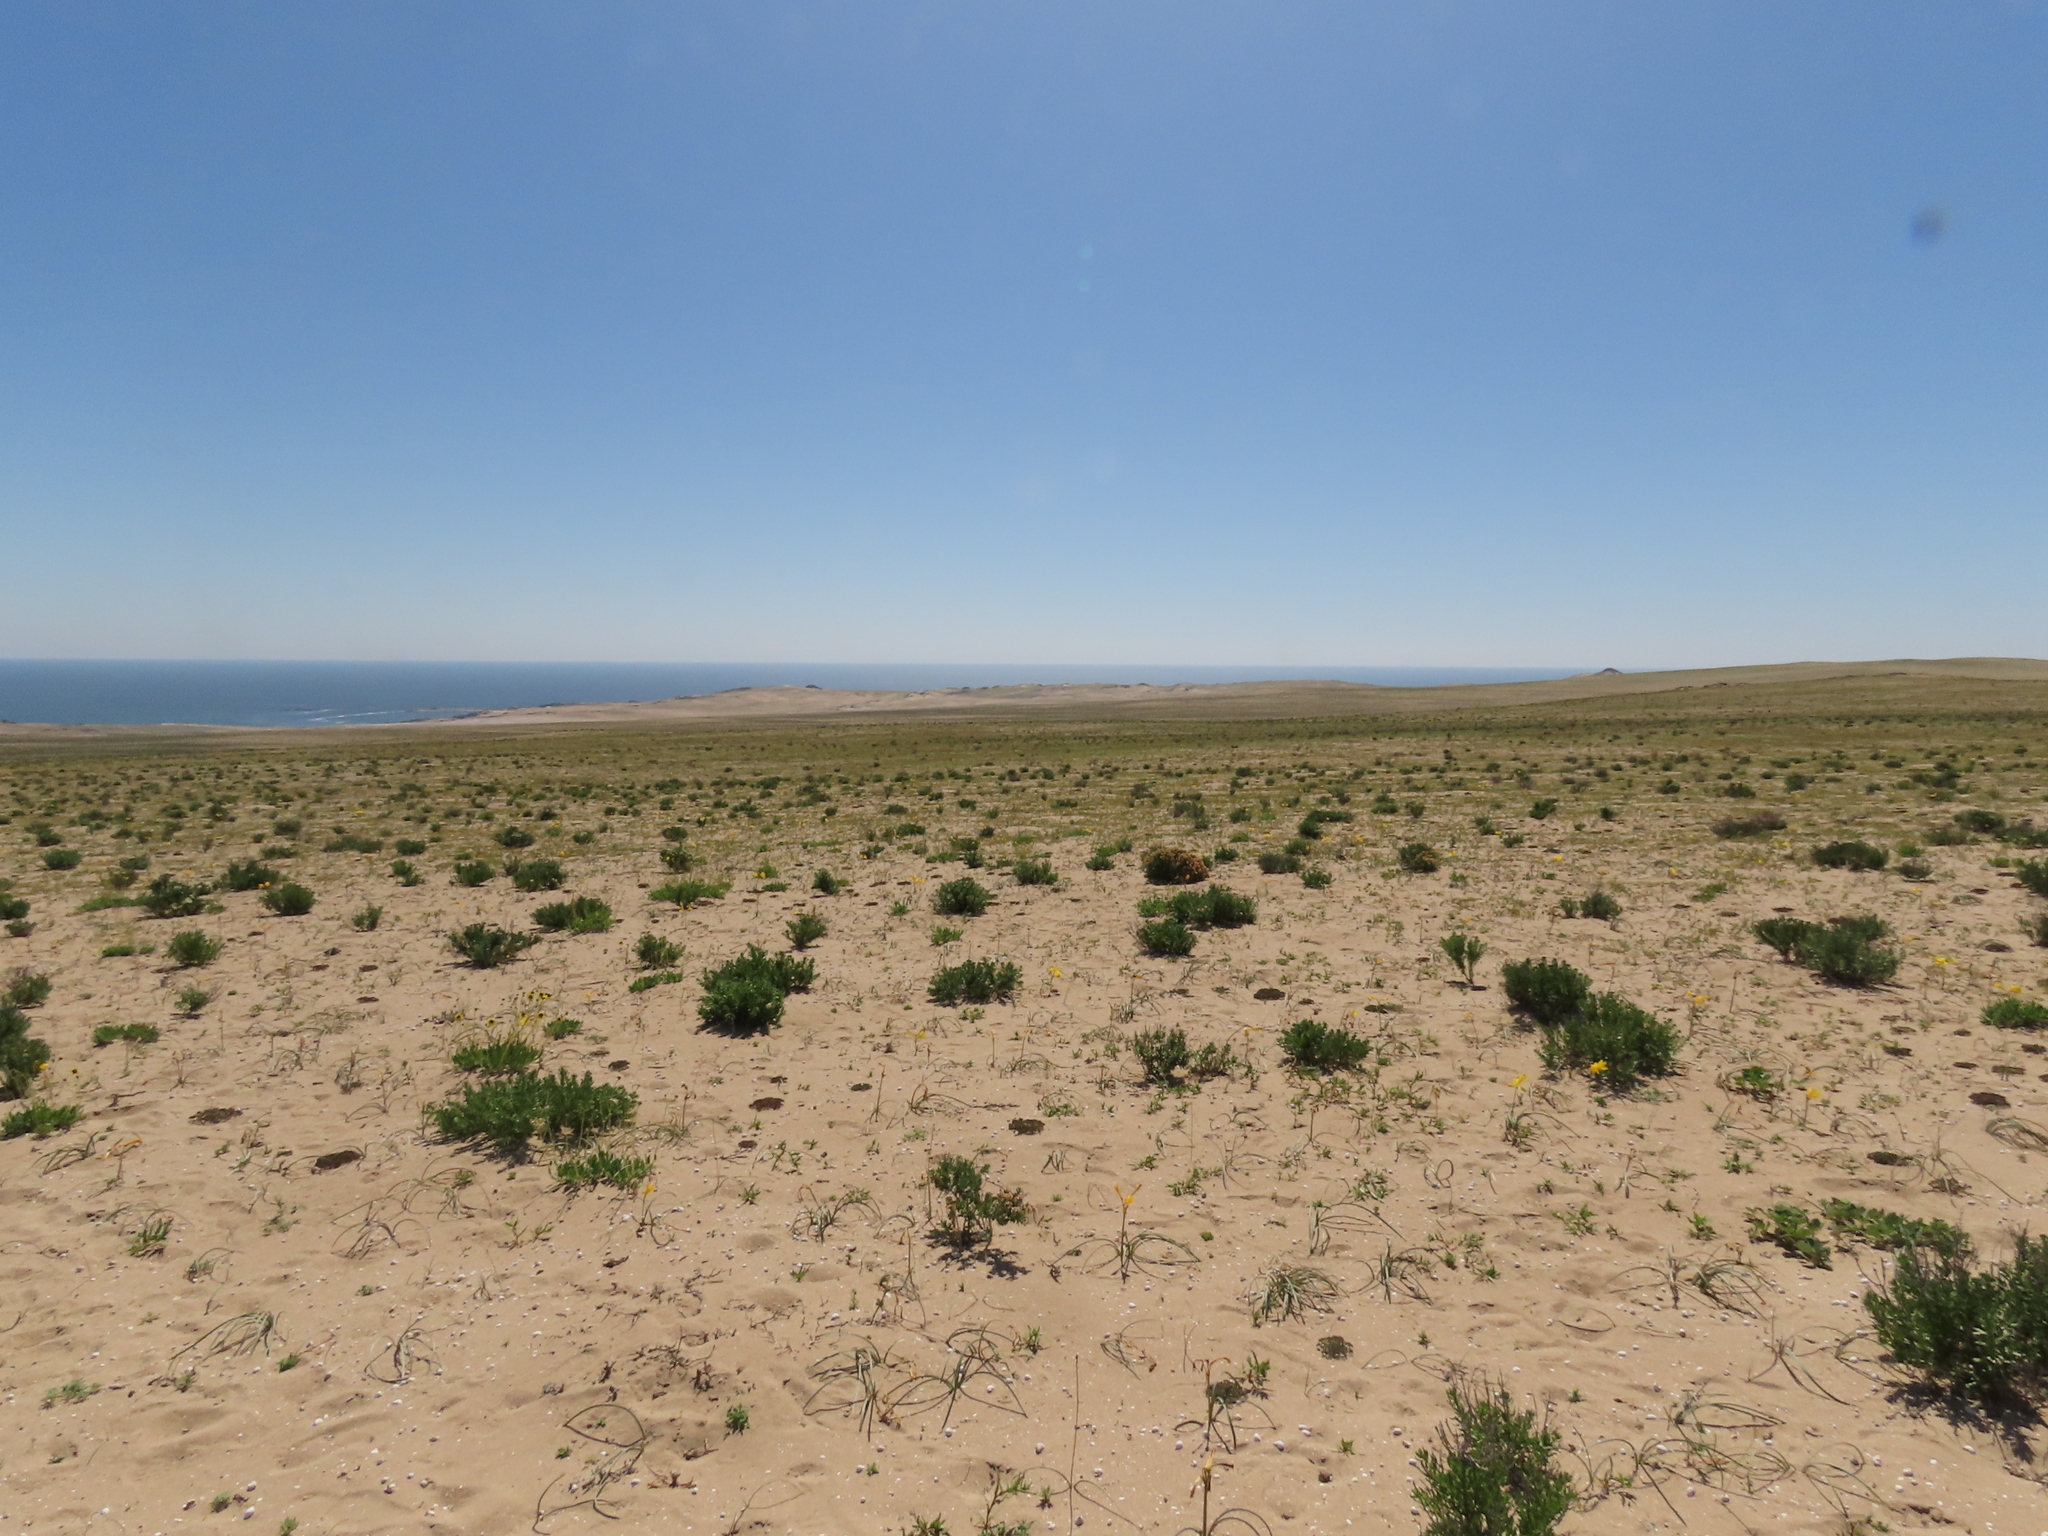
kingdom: Plantae
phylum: Tracheophyta
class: Liliopsida
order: Asparagales
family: Amaryllidaceae
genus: Zephyranthes
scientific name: Zephyranthes bagnoldii
